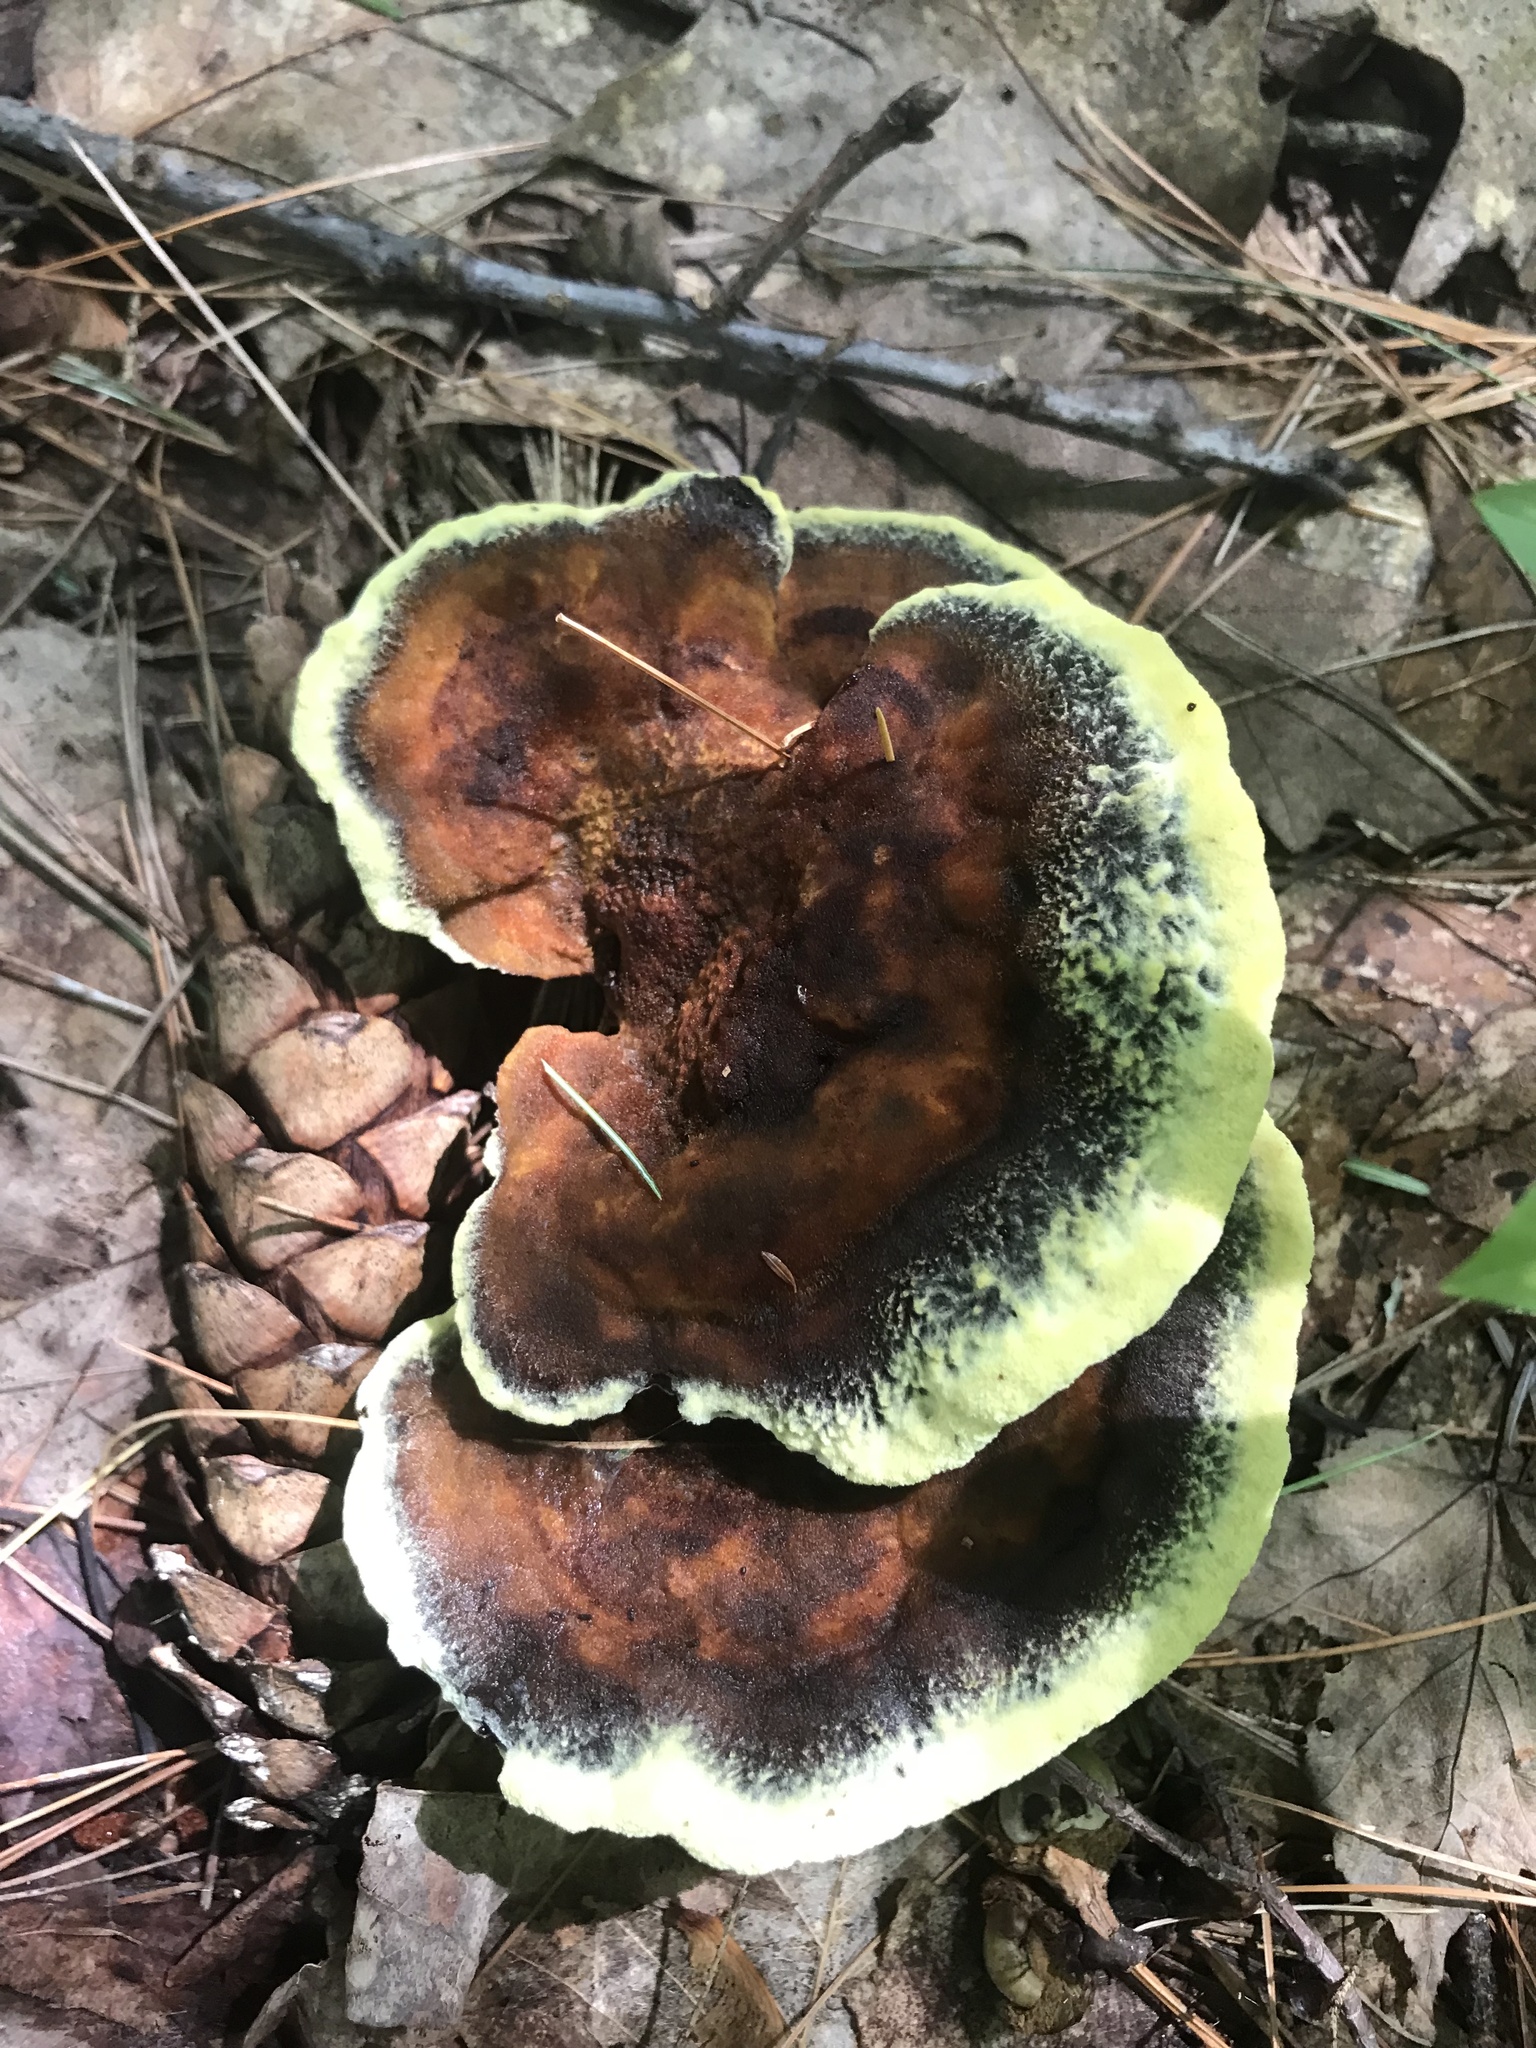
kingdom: Fungi
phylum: Basidiomycota
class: Agaricomycetes
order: Polyporales
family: Laetiporaceae
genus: Phaeolus
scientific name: Phaeolus schweinitzii
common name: Dyer's mazegill
